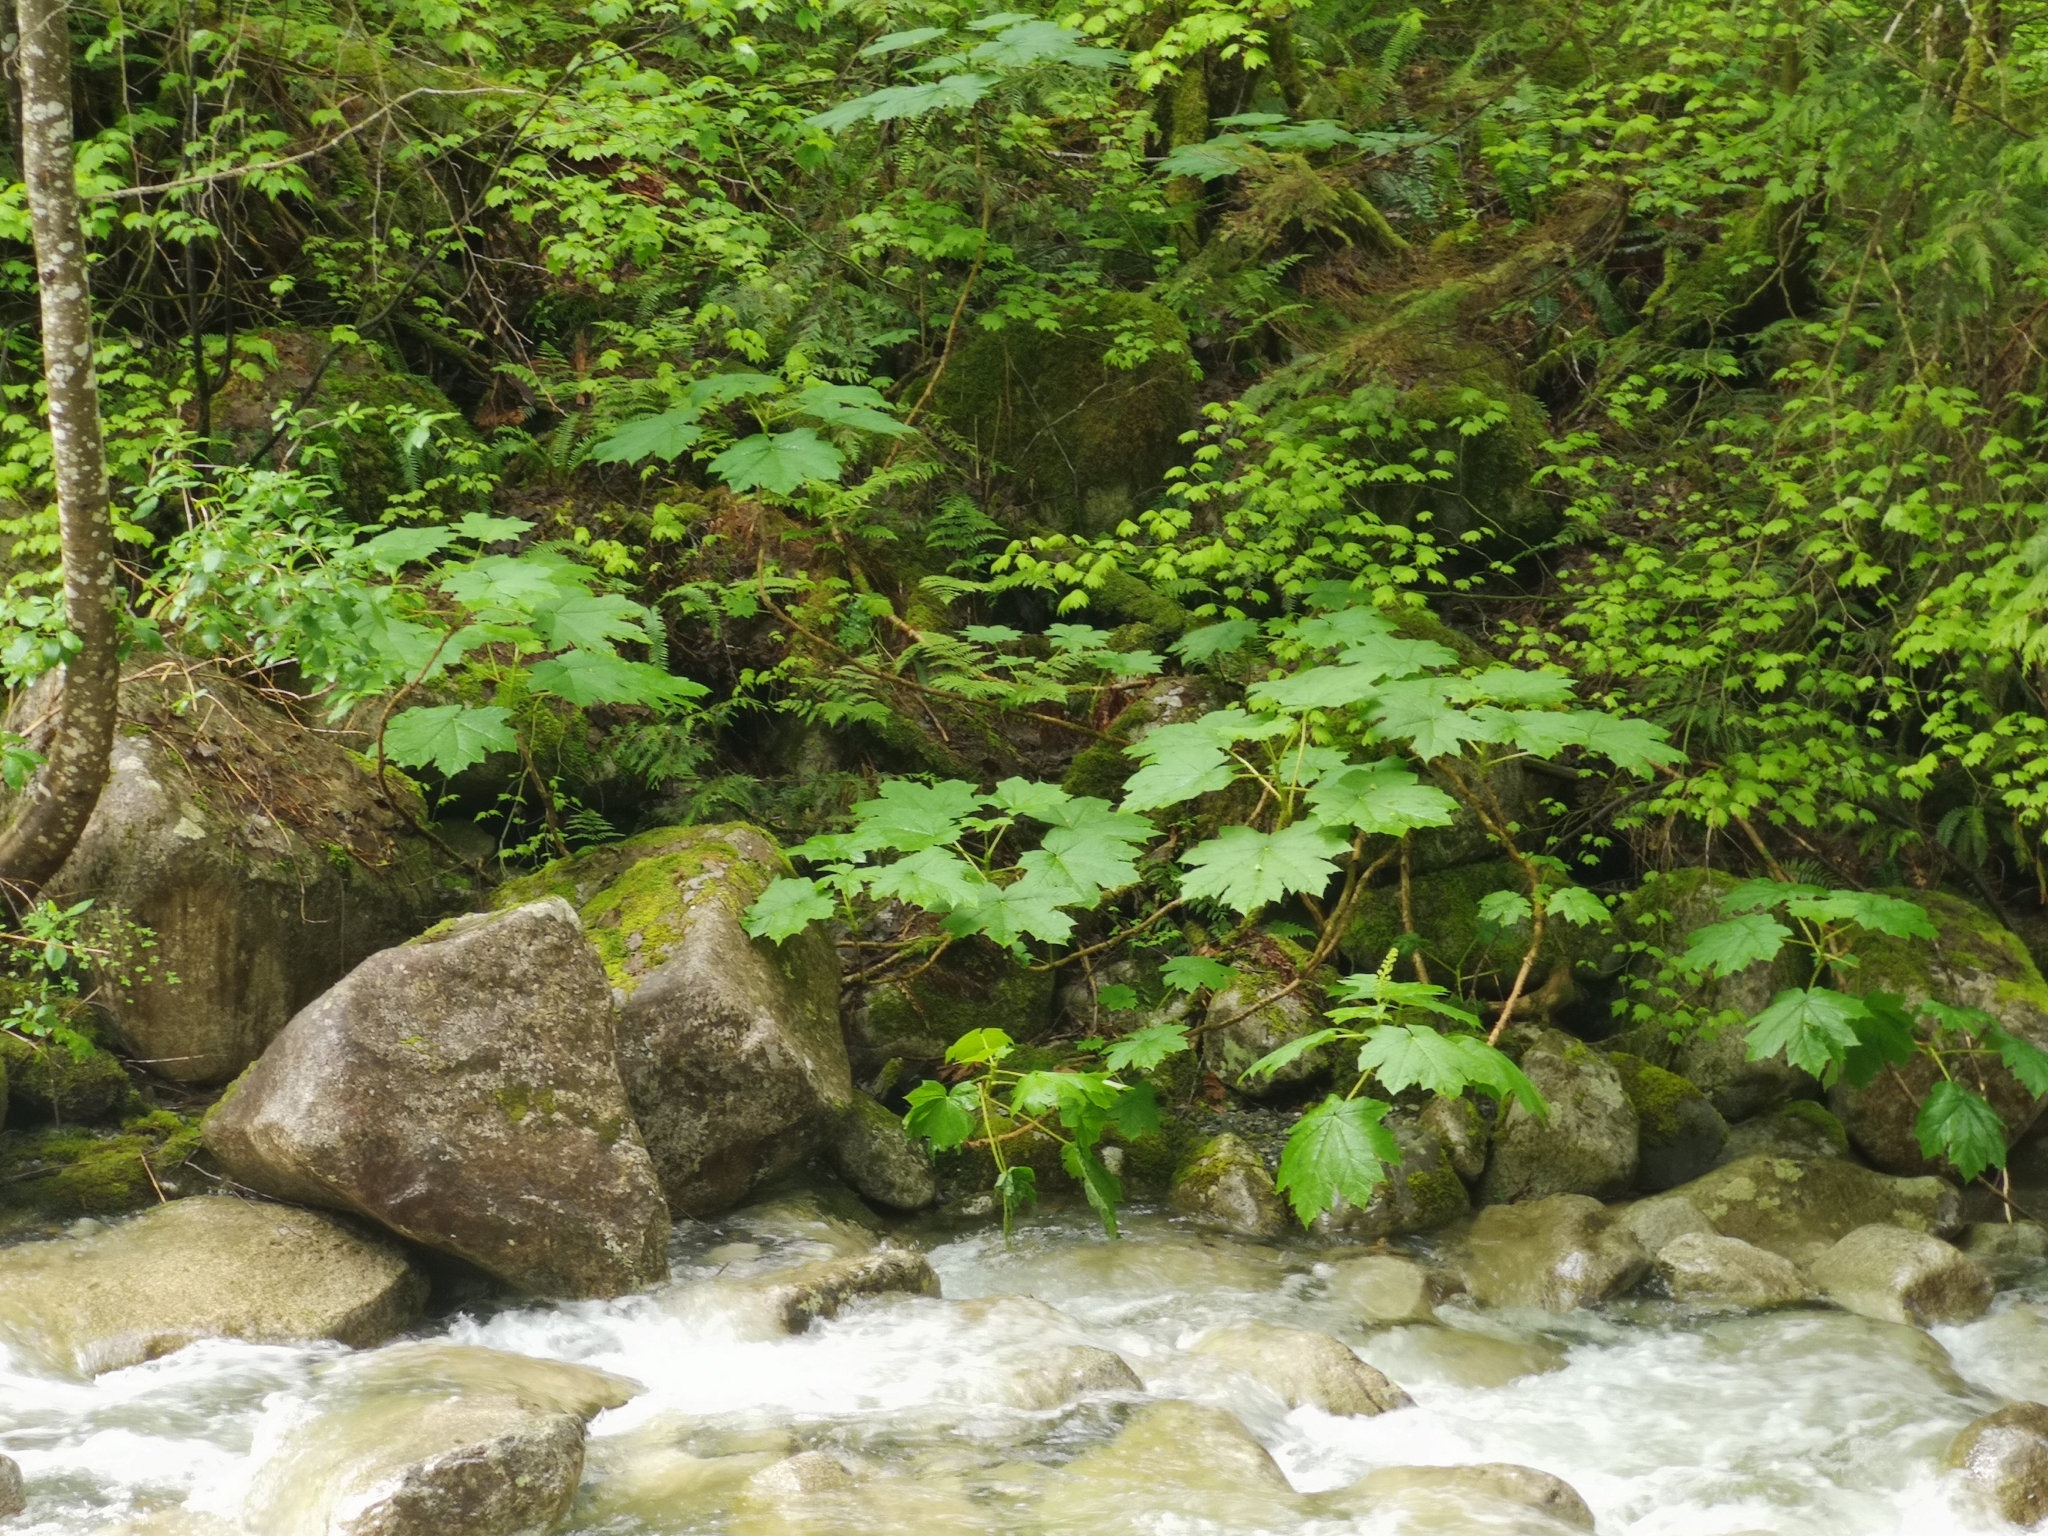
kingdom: Plantae
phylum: Tracheophyta
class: Magnoliopsida
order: Apiales
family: Araliaceae
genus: Oplopanax
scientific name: Oplopanax horridus
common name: Devil's walking-stick
